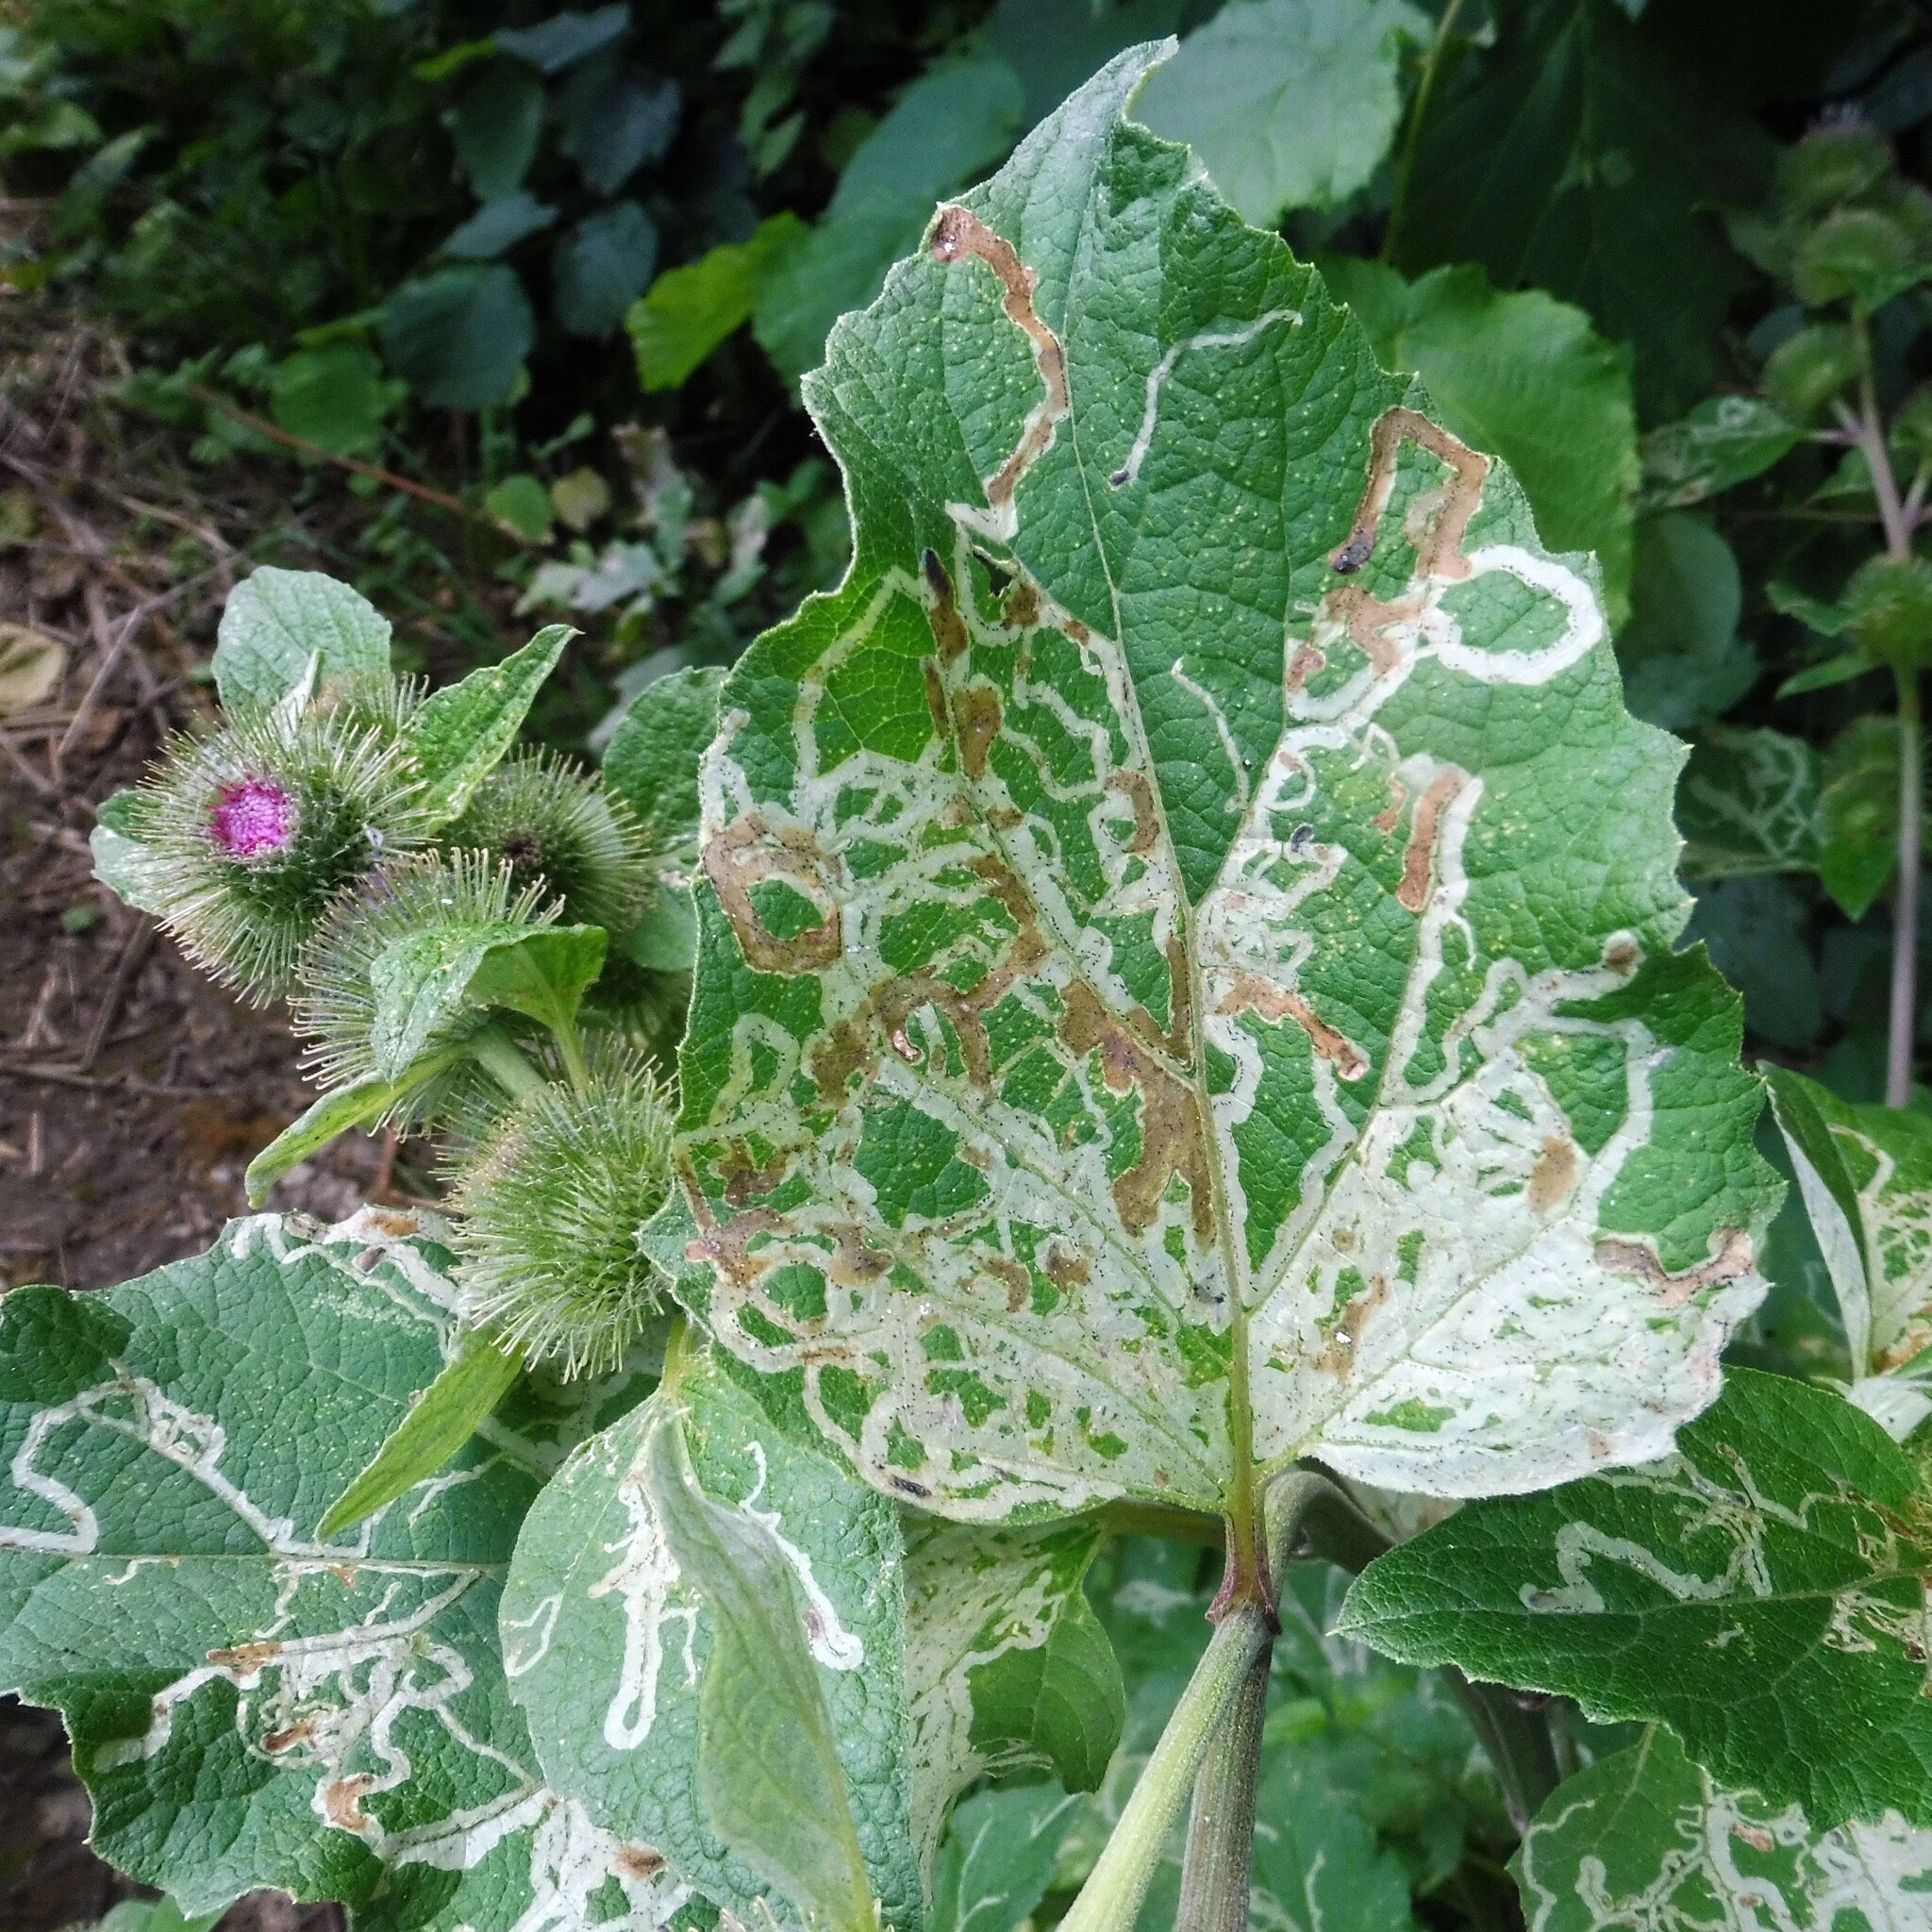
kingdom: Animalia
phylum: Arthropoda
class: Insecta
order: Diptera
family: Agromyzidae
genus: Phytomyza
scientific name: Phytomyza lappae
